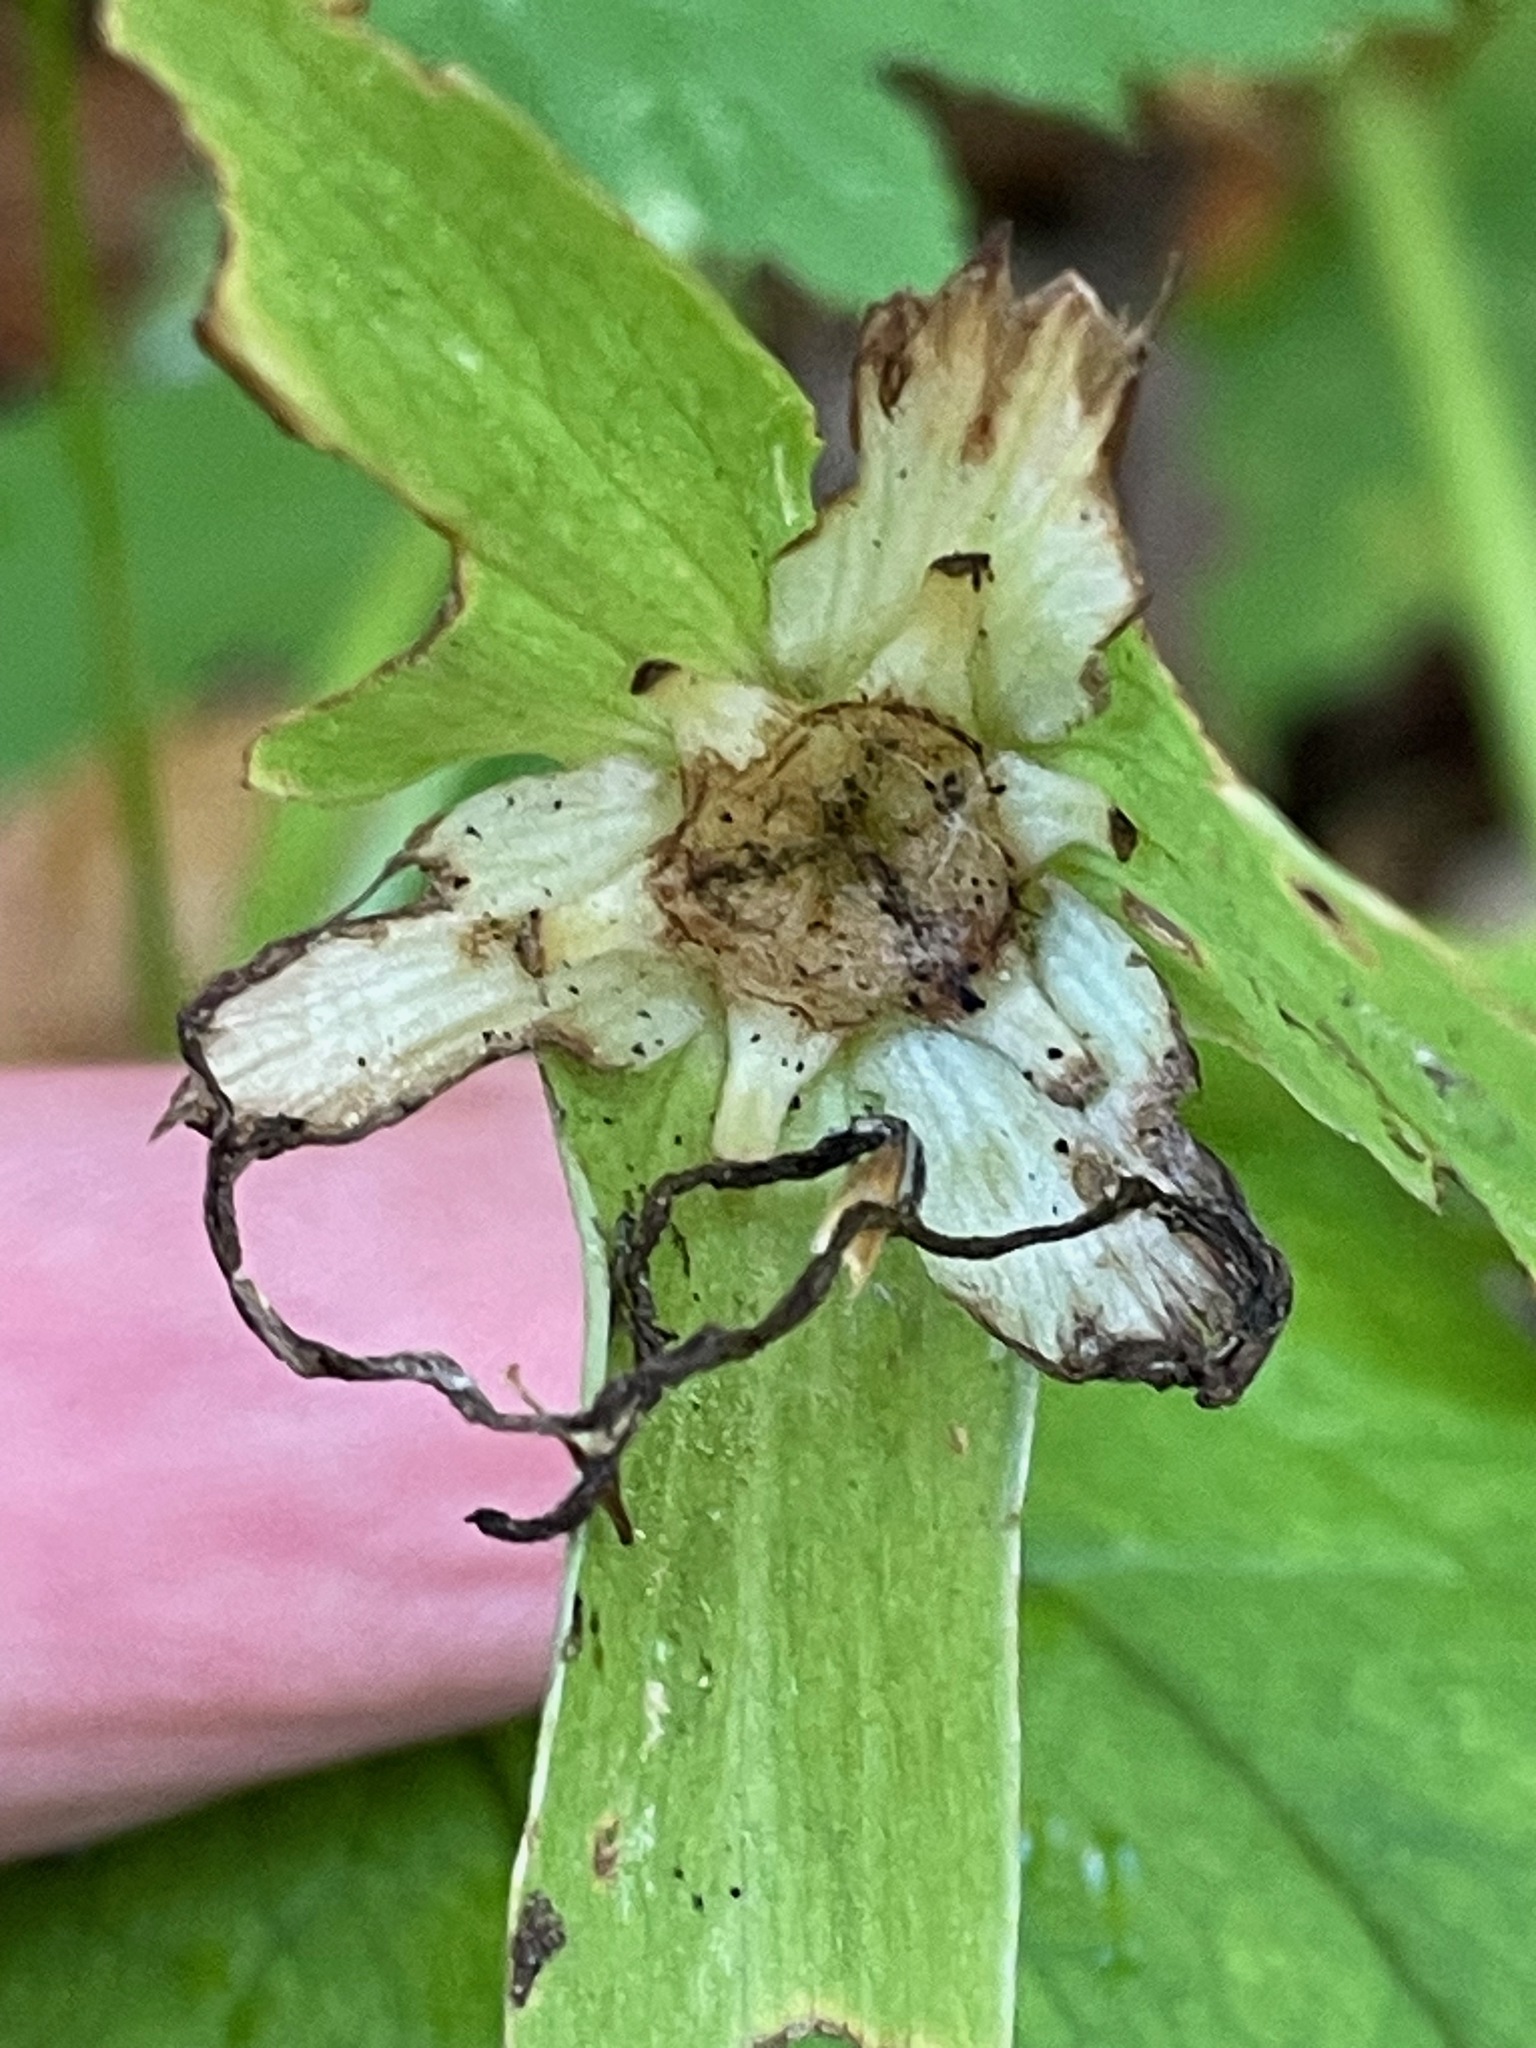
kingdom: Plantae
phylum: Tracheophyta
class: Liliopsida
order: Liliales
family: Melanthiaceae
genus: Trillium
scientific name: Trillium grandiflorum
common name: Great white trillium
